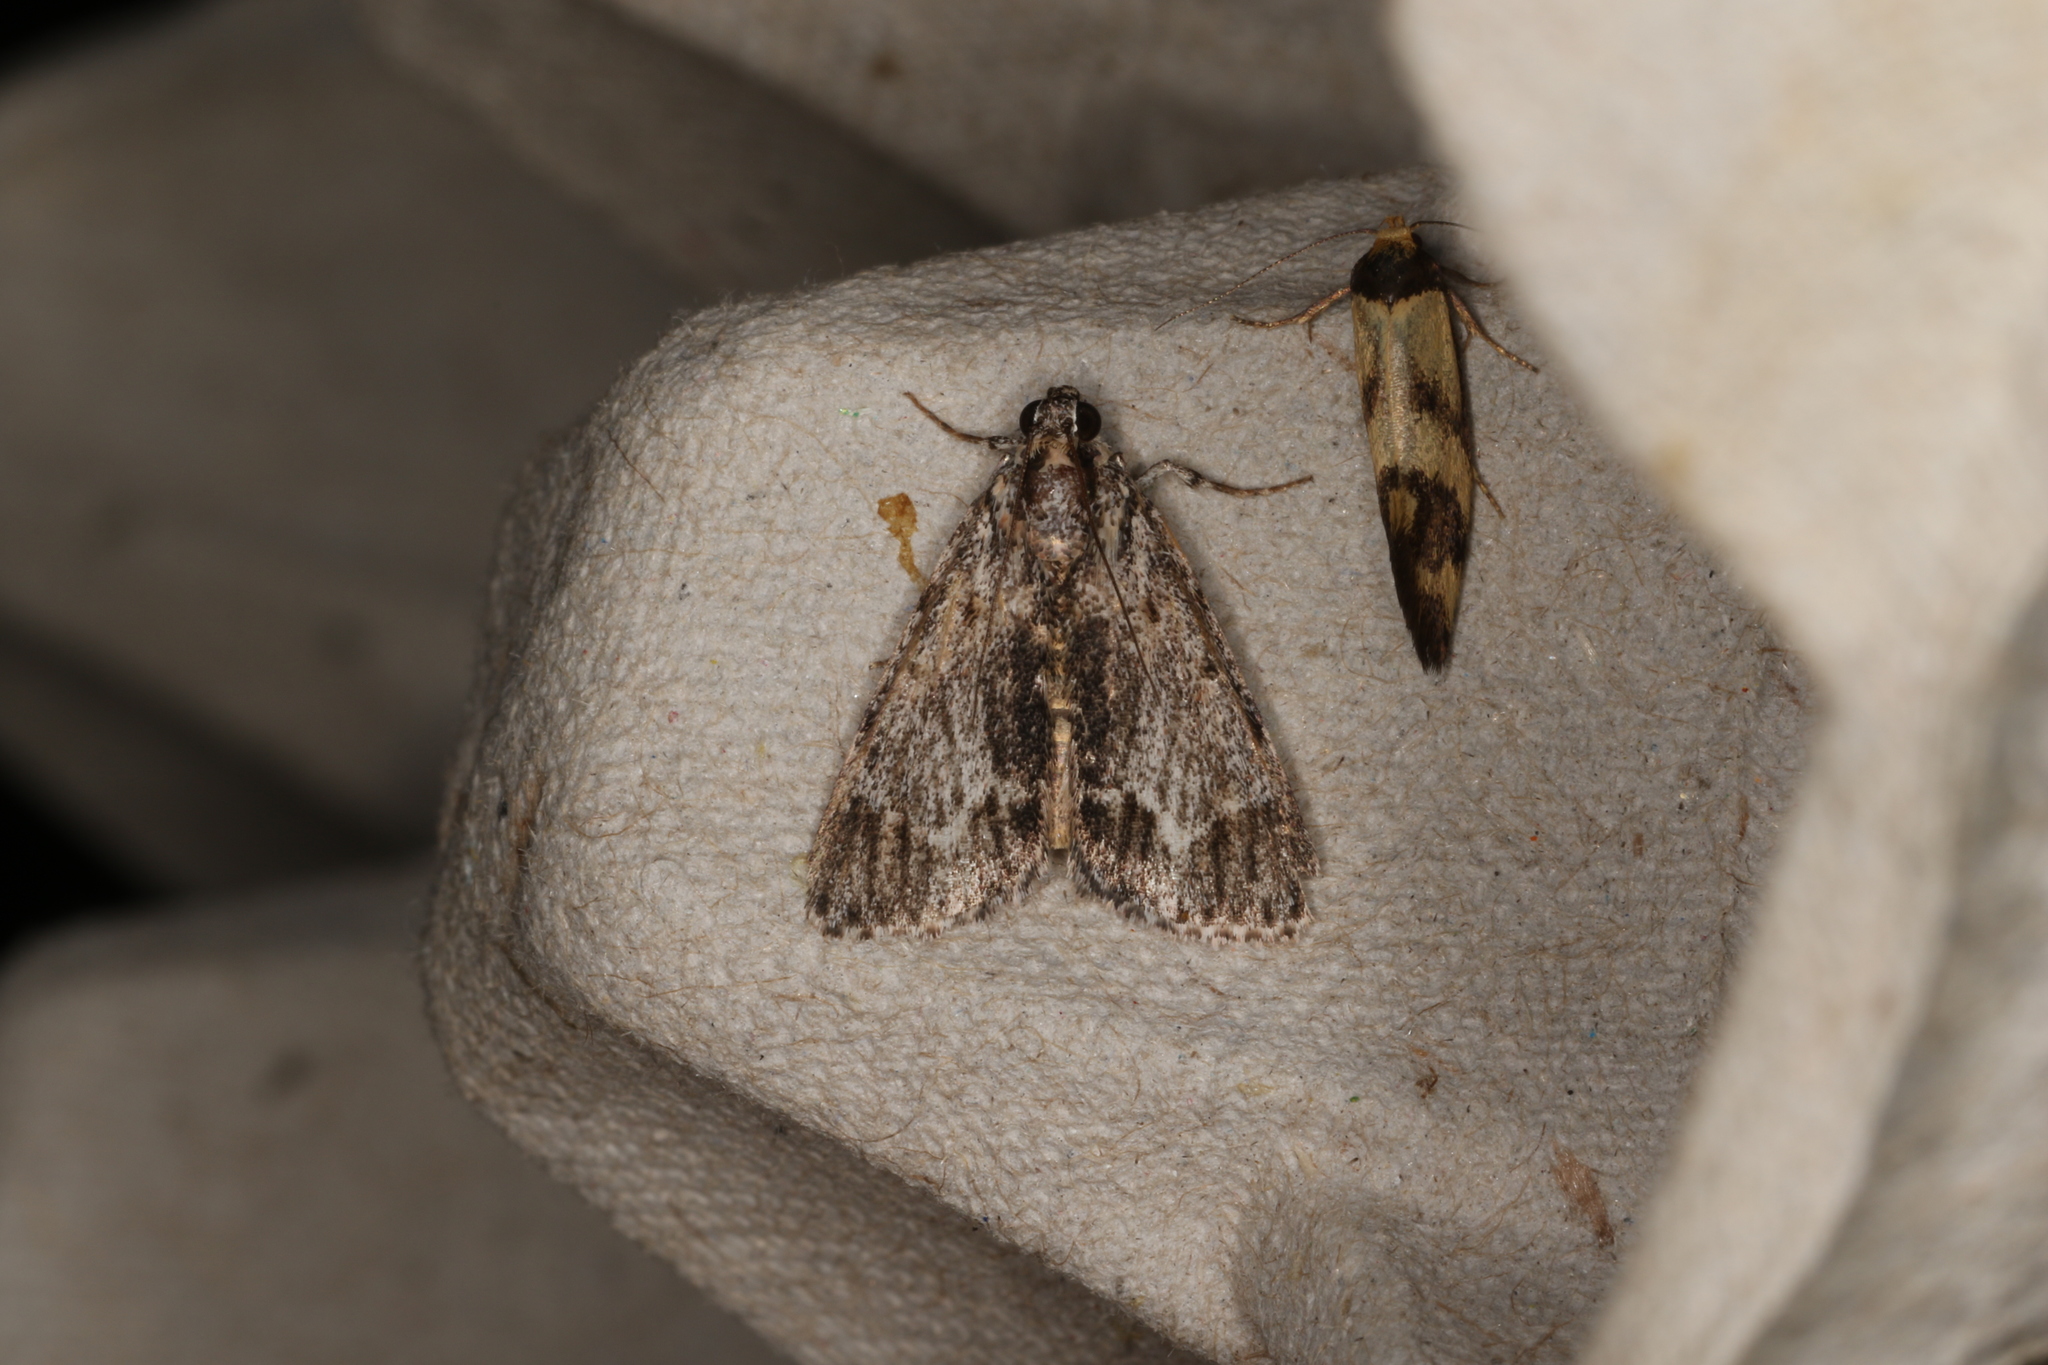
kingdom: Animalia
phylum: Arthropoda
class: Insecta
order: Lepidoptera
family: Pyralidae
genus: Spectrotrota
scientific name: Spectrotrota fimbrialis
